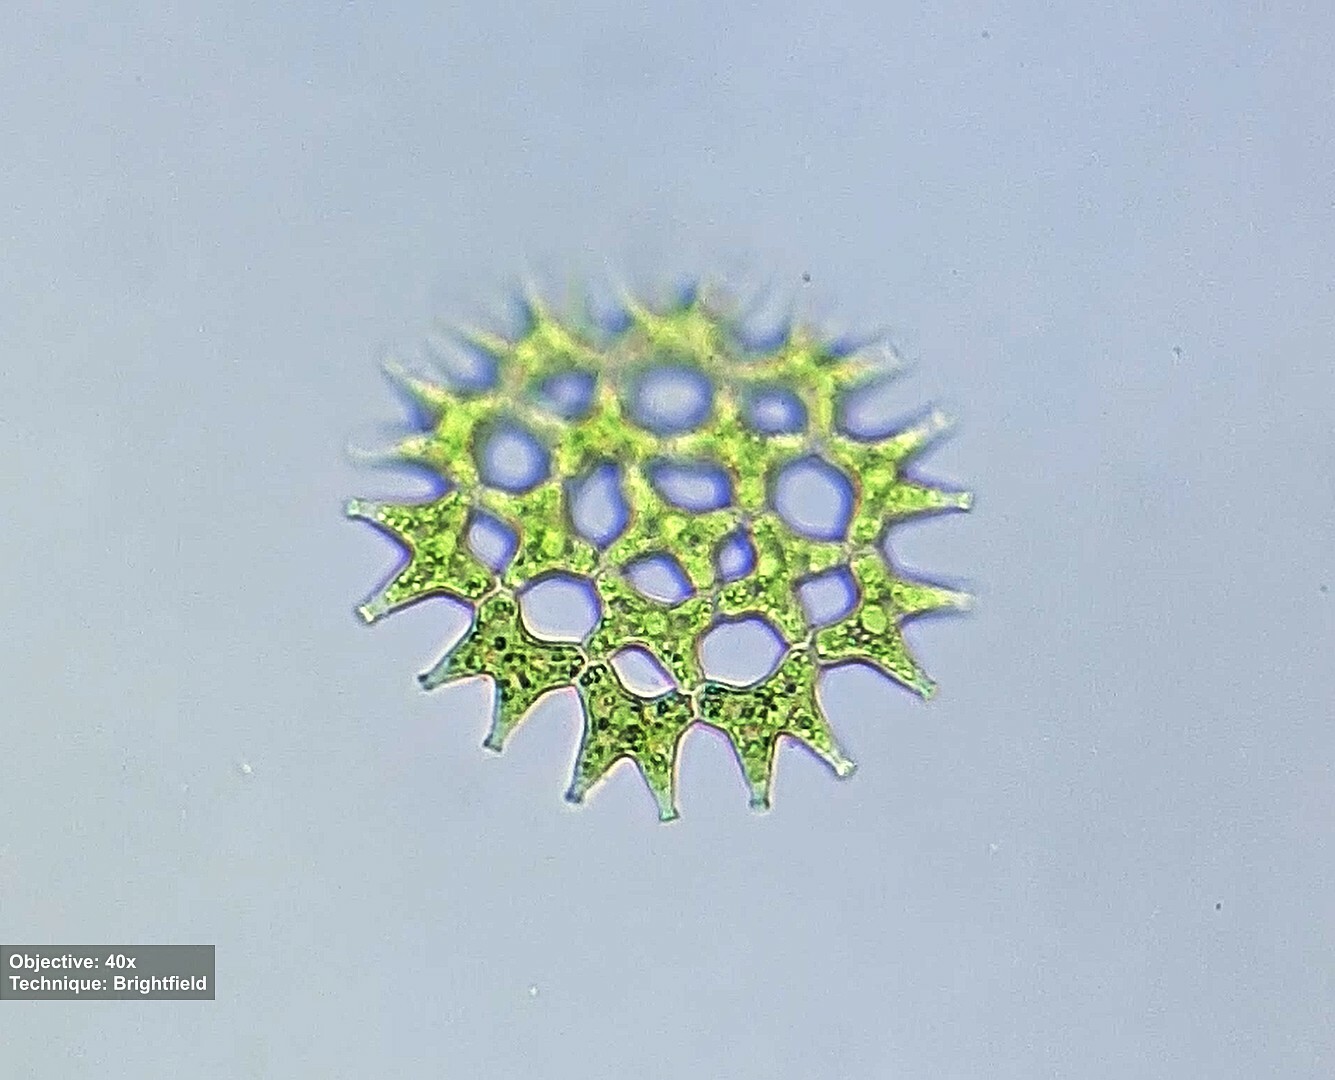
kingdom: Plantae
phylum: Chlorophyta
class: Chlorophyceae
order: Sphaeropleales
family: Hydrodictyaceae
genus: Pediastrum
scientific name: Pediastrum duplex
